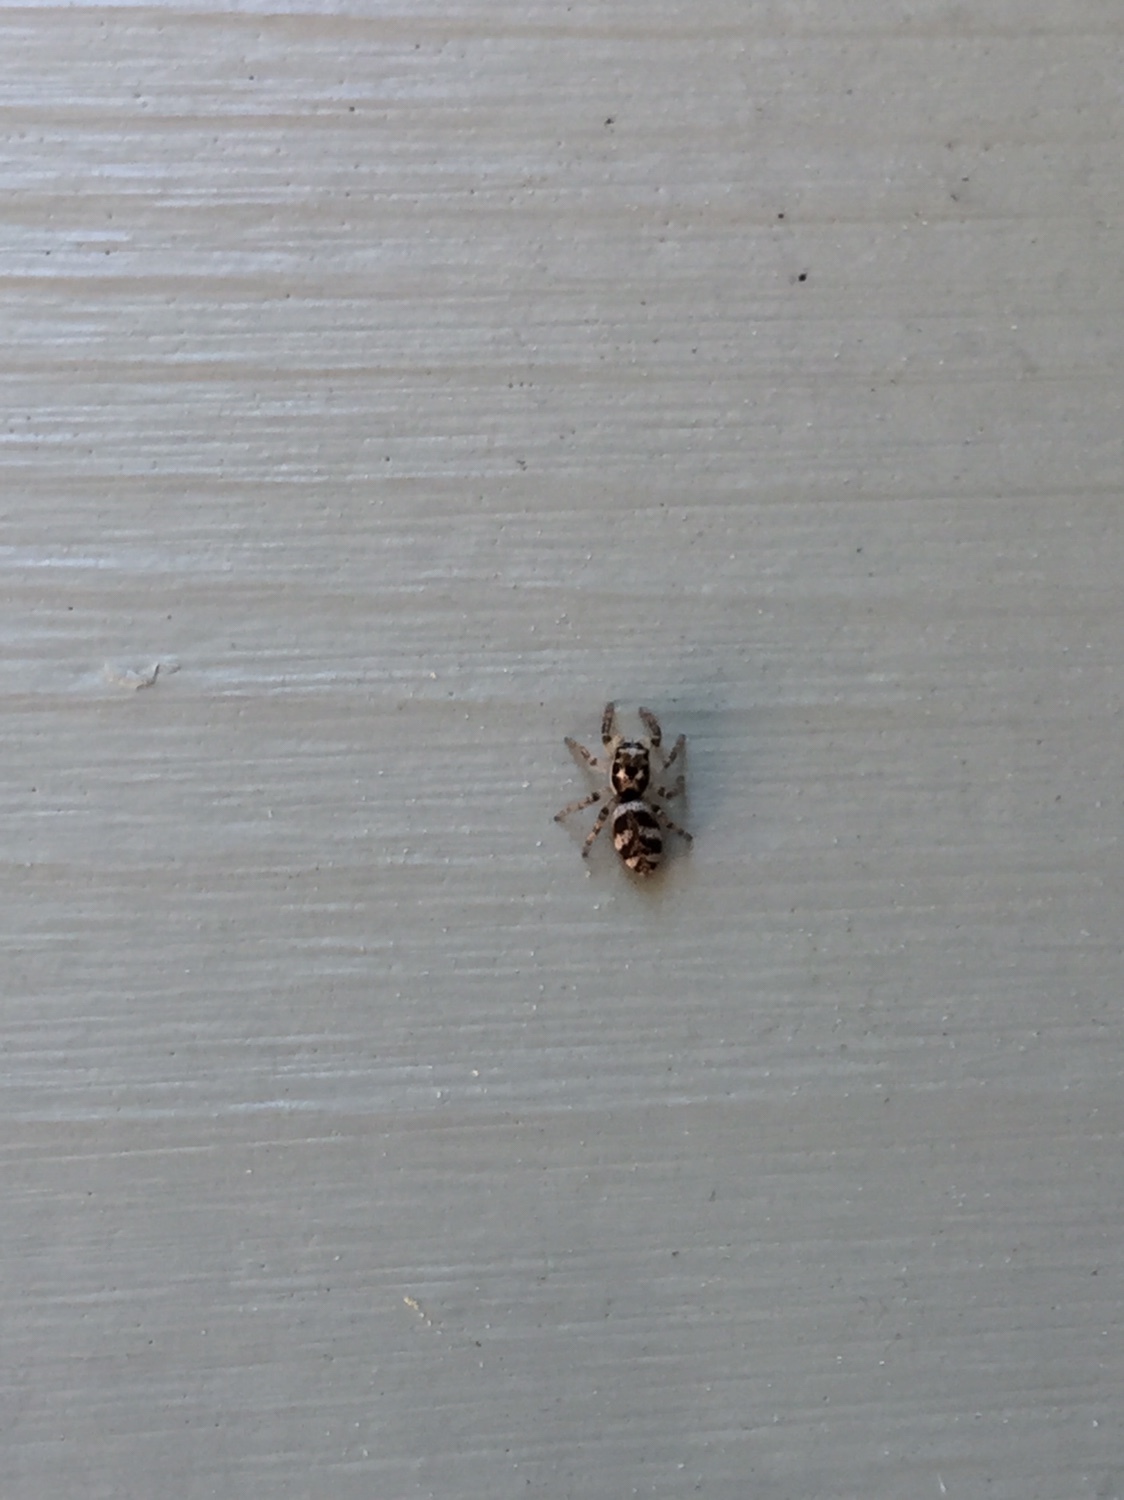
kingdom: Animalia
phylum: Arthropoda
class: Arachnida
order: Araneae
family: Salticidae
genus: Salticus
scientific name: Salticus scenicus
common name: Zebra jumper
